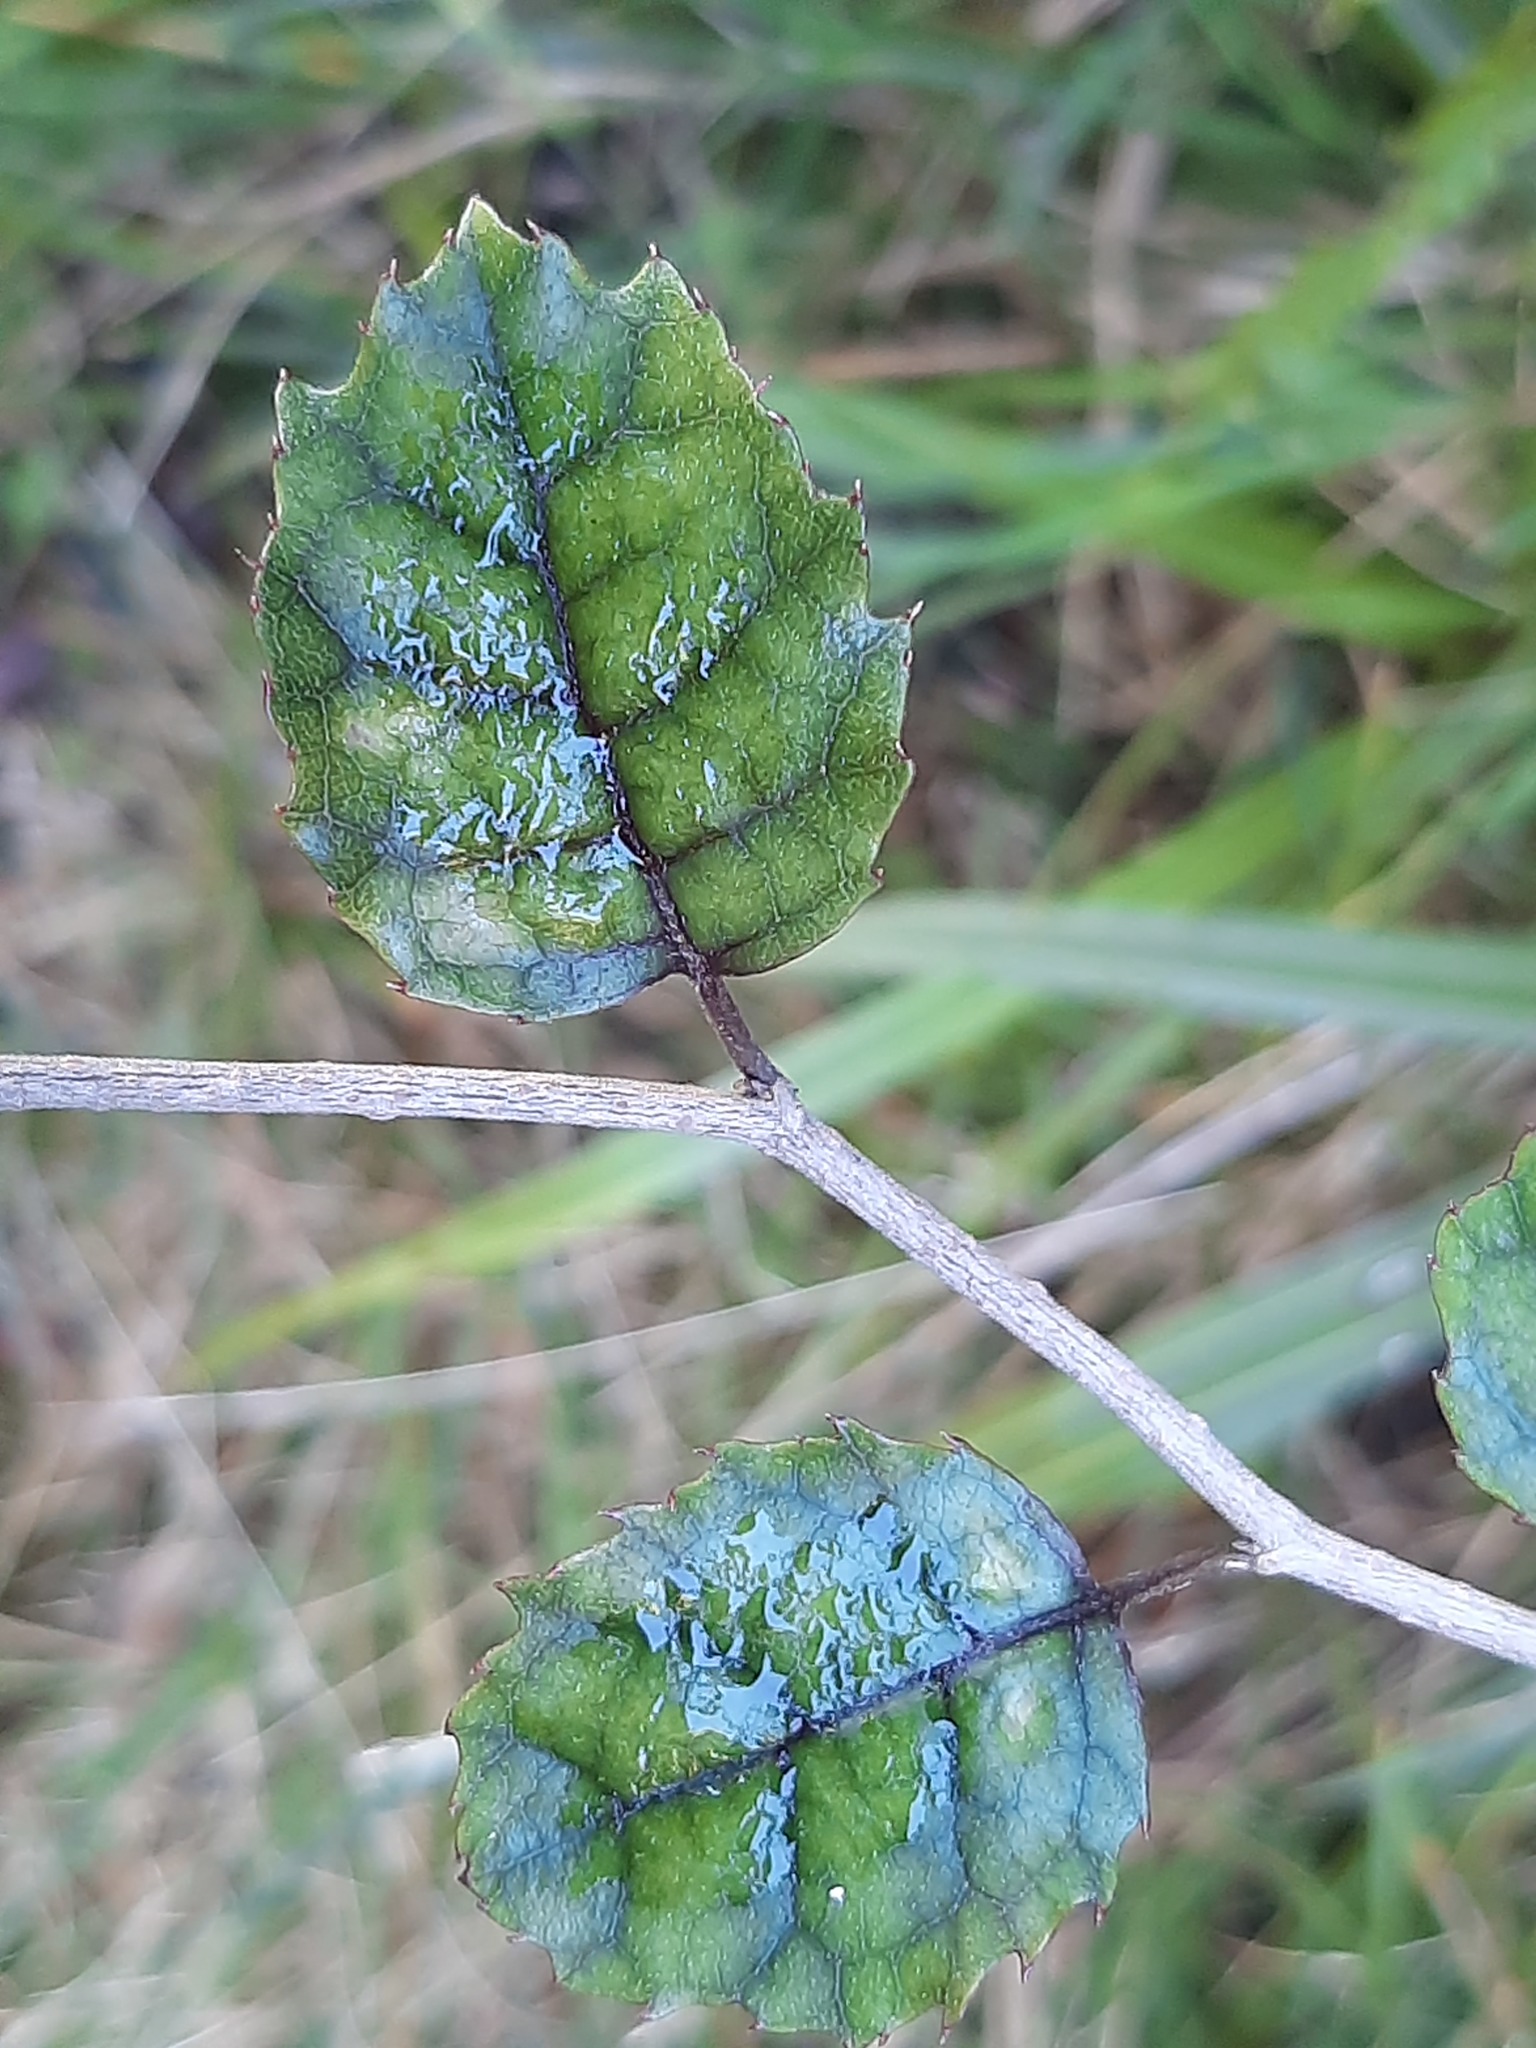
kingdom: Plantae
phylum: Tracheophyta
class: Magnoliopsida
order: Asterales
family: Rousseaceae
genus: Carpodetus
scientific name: Carpodetus serratus
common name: White mapau
